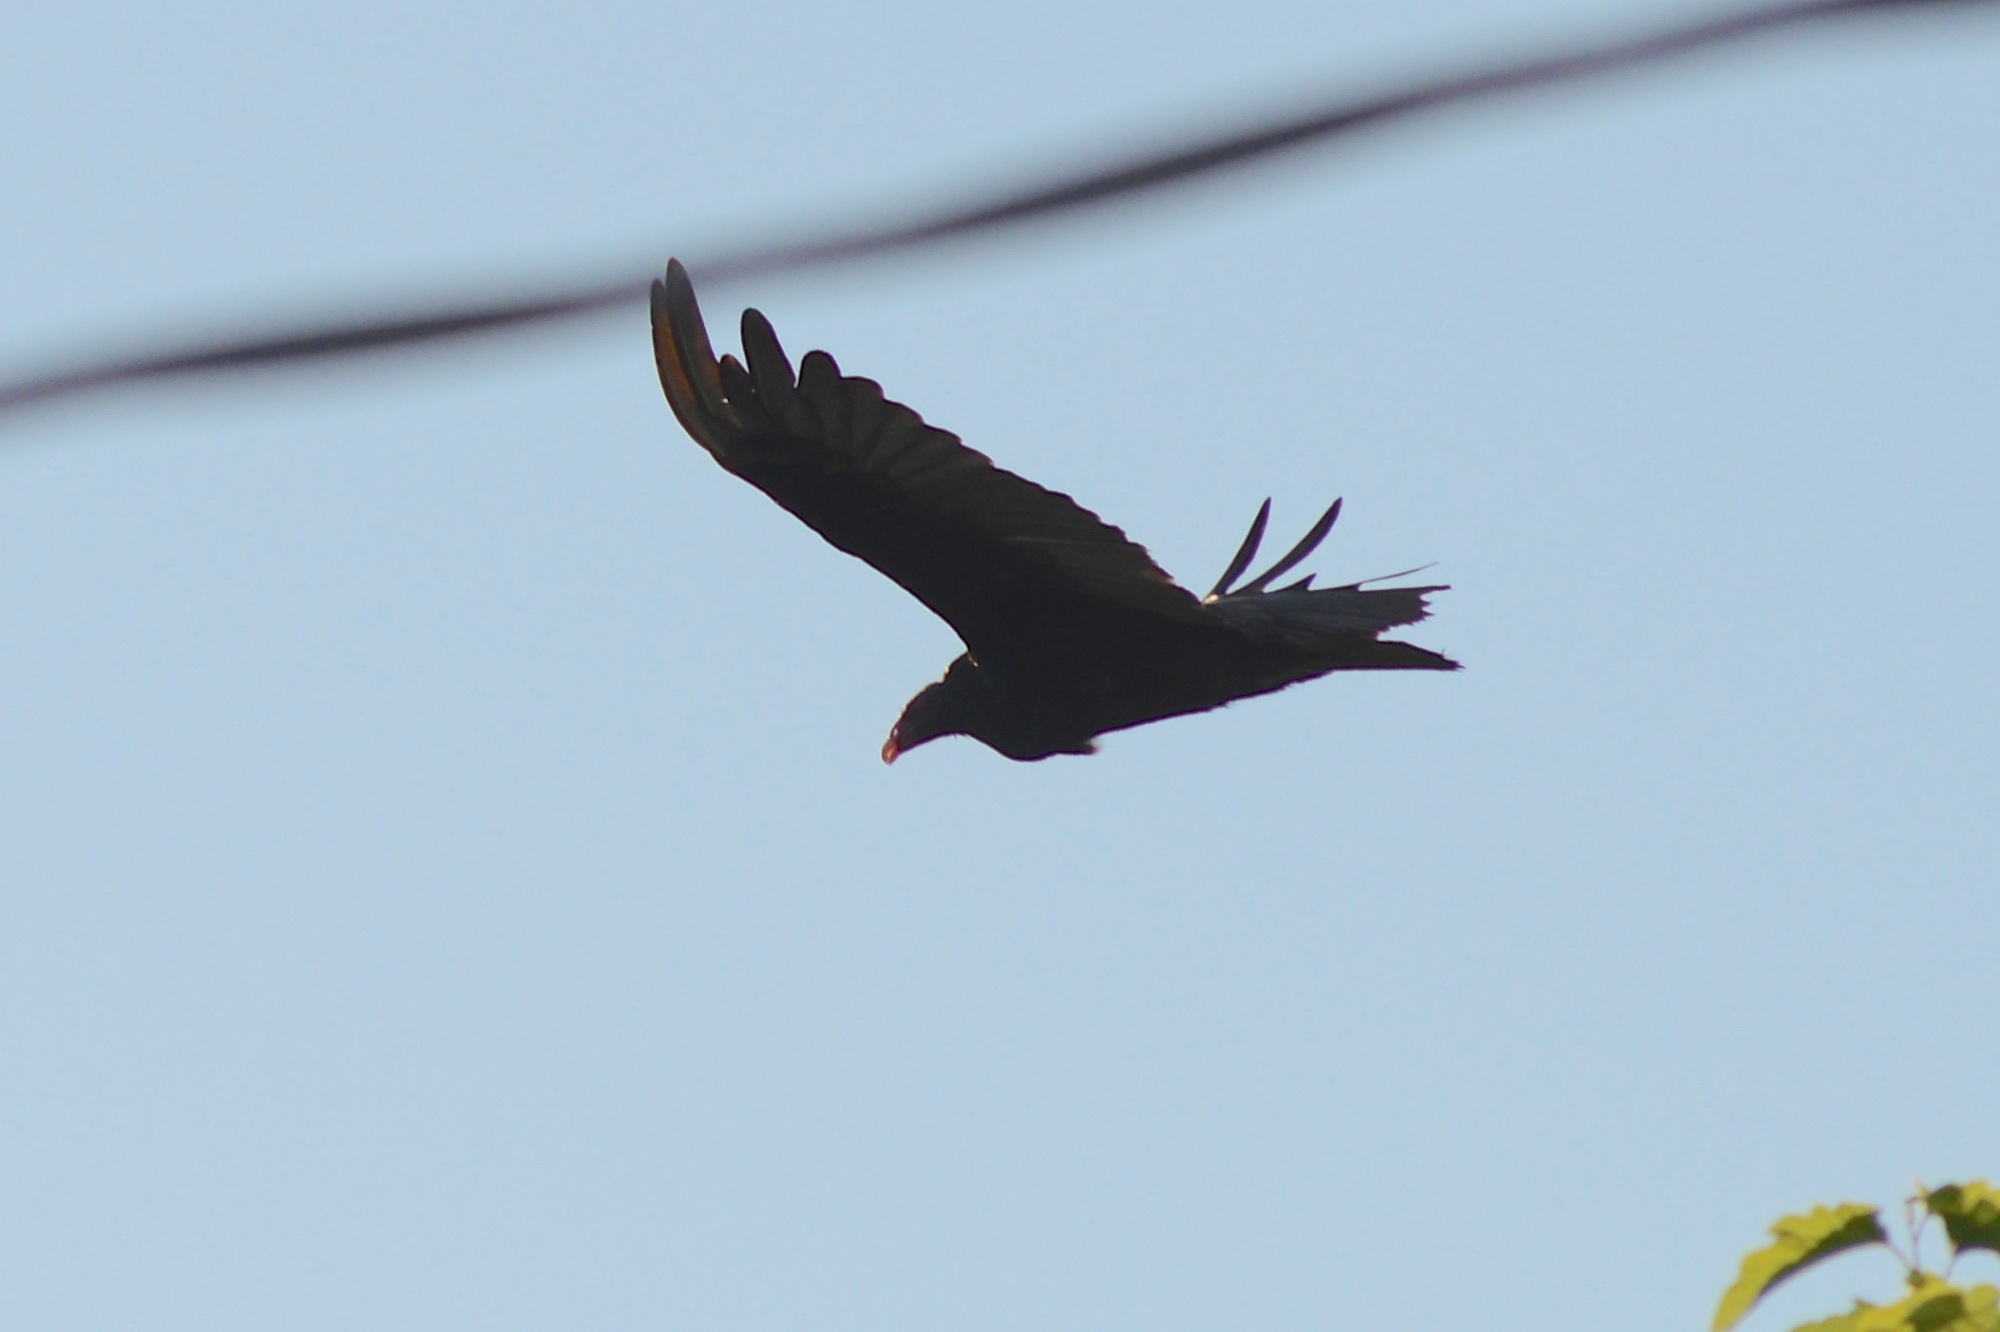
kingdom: Animalia
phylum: Chordata
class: Aves
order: Accipitriformes
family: Cathartidae
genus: Cathartes
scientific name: Cathartes aura
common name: Turkey vulture
